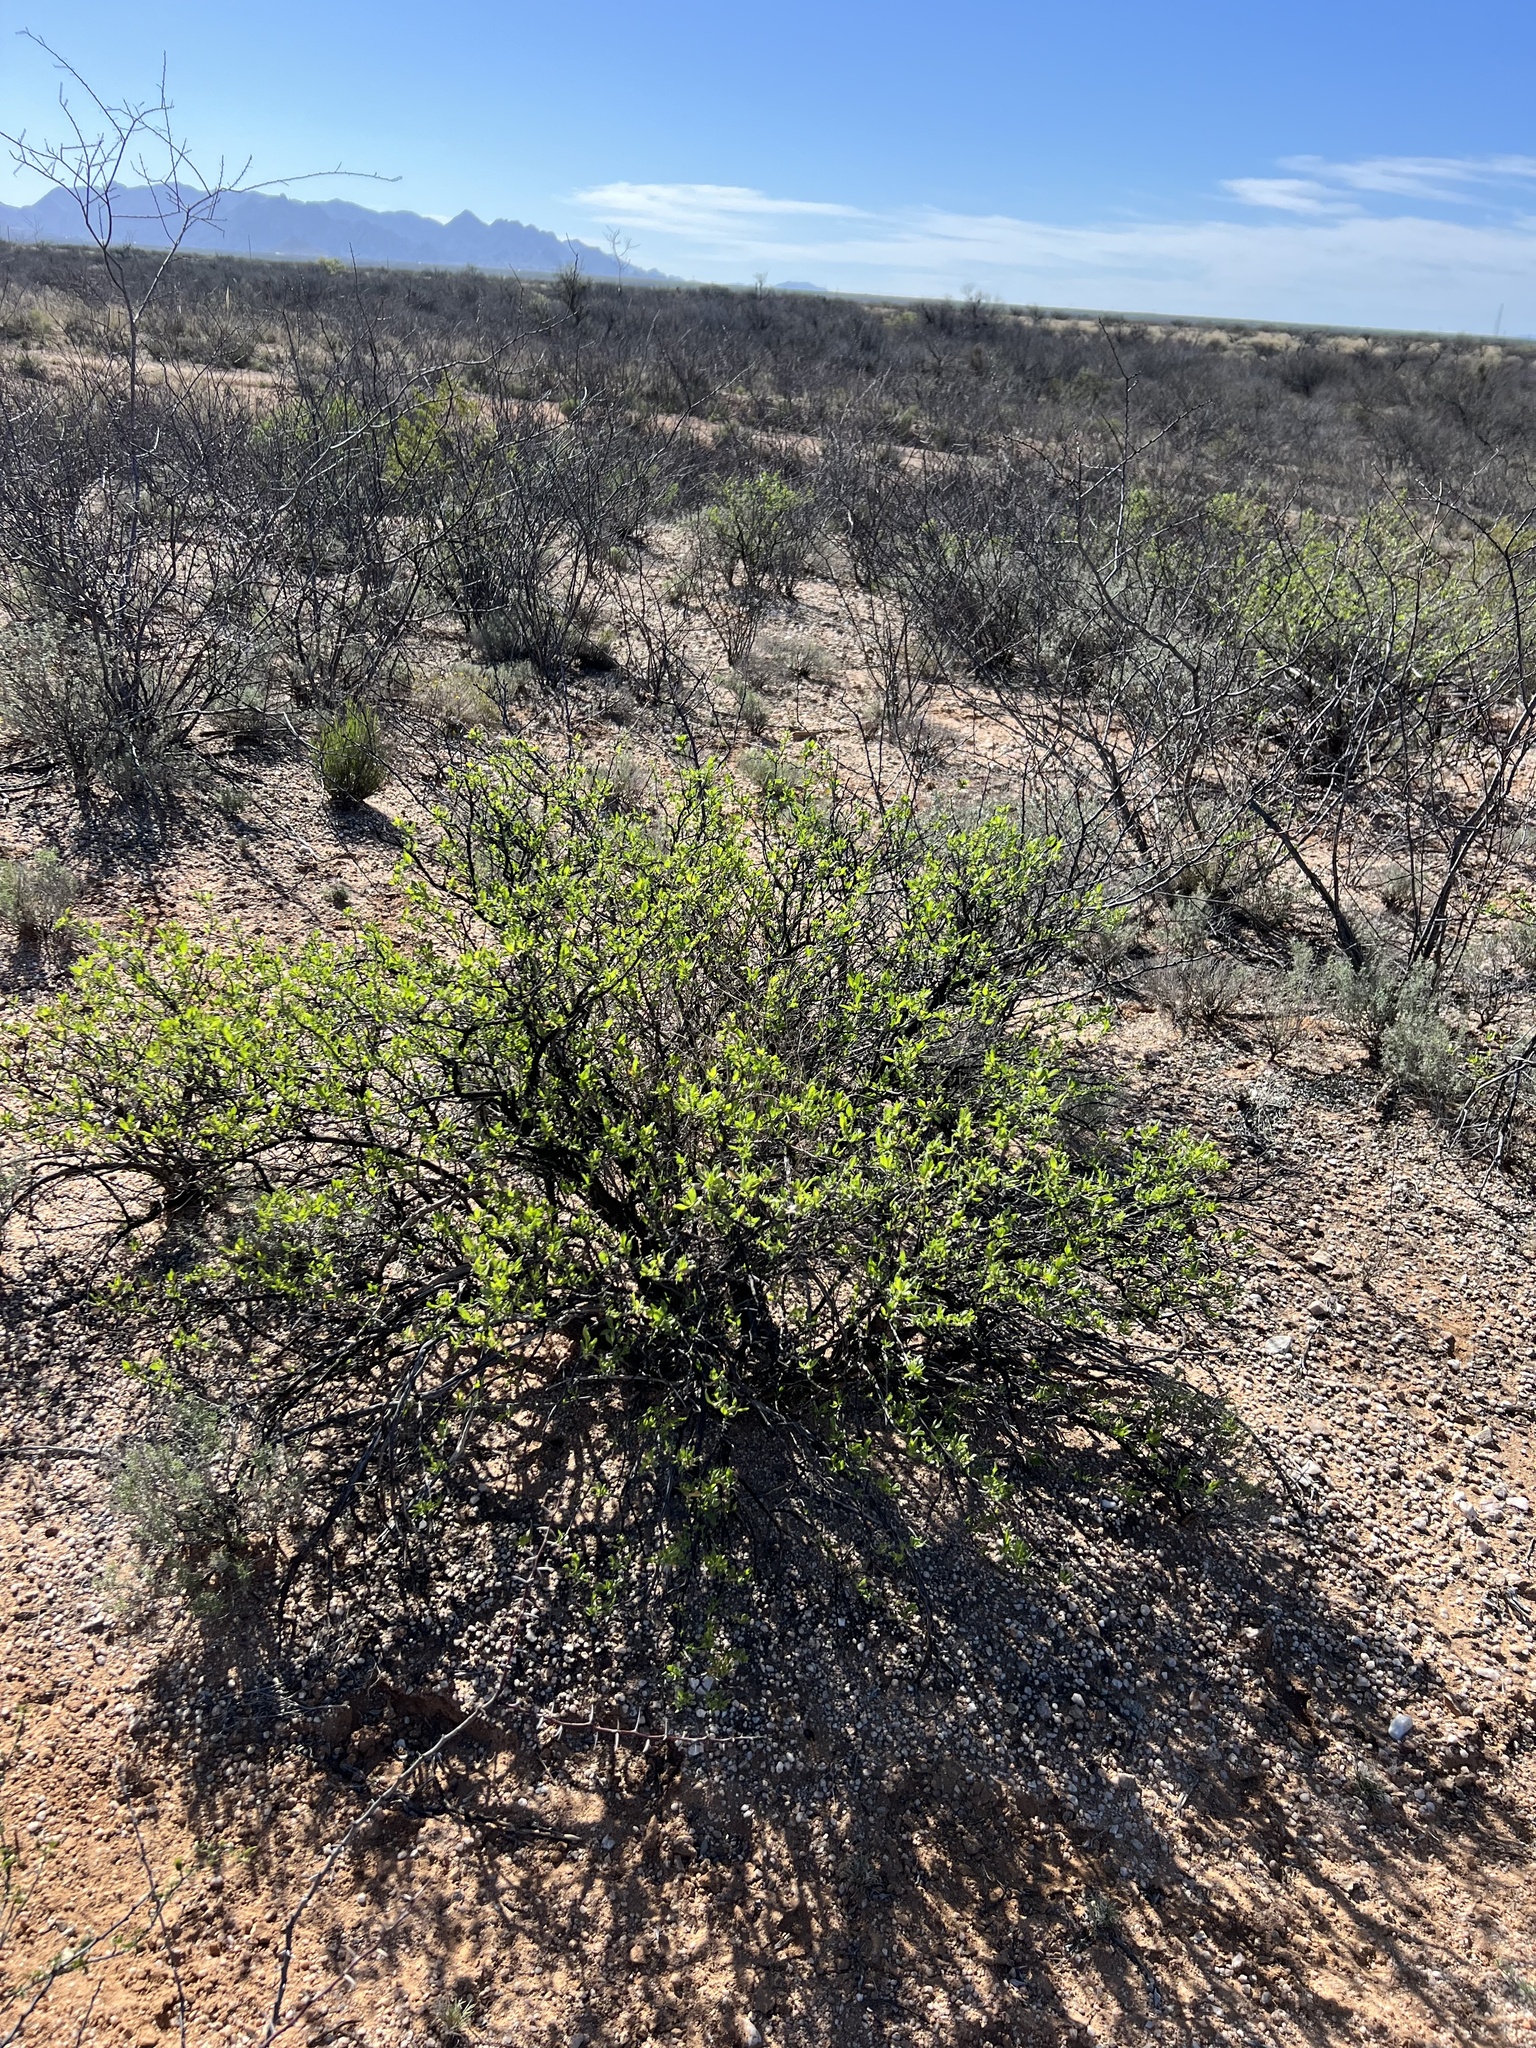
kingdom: Plantae
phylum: Tracheophyta
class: Magnoliopsida
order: Asterales
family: Asteraceae
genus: Flourensia
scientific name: Flourensia cernua
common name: Varnishbush
